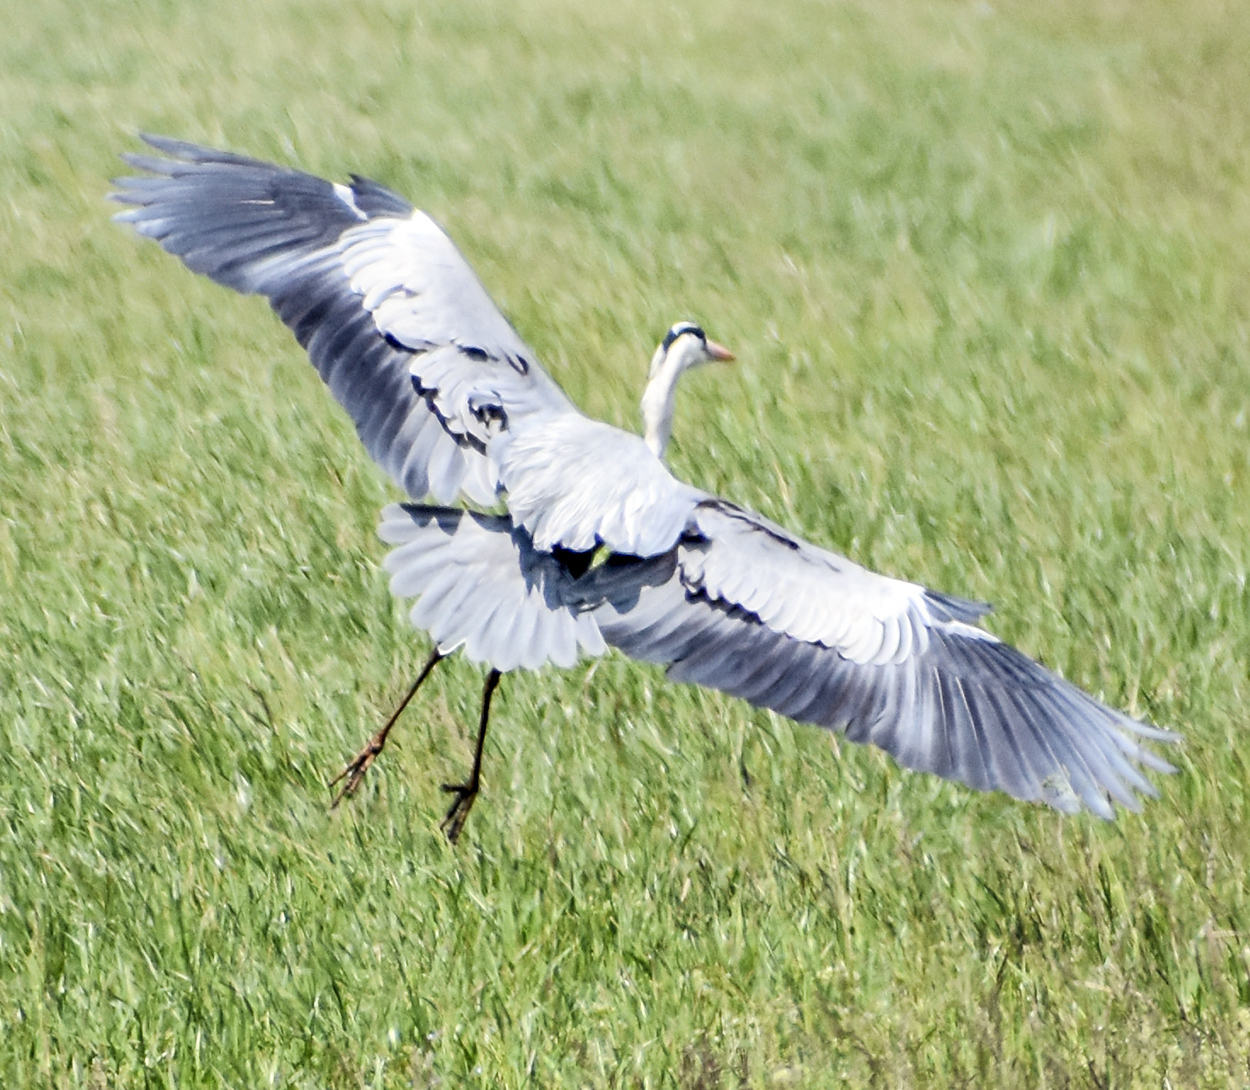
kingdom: Animalia
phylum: Chordata
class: Aves
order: Pelecaniformes
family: Ardeidae
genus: Ardea
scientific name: Ardea cinerea
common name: Grey heron
